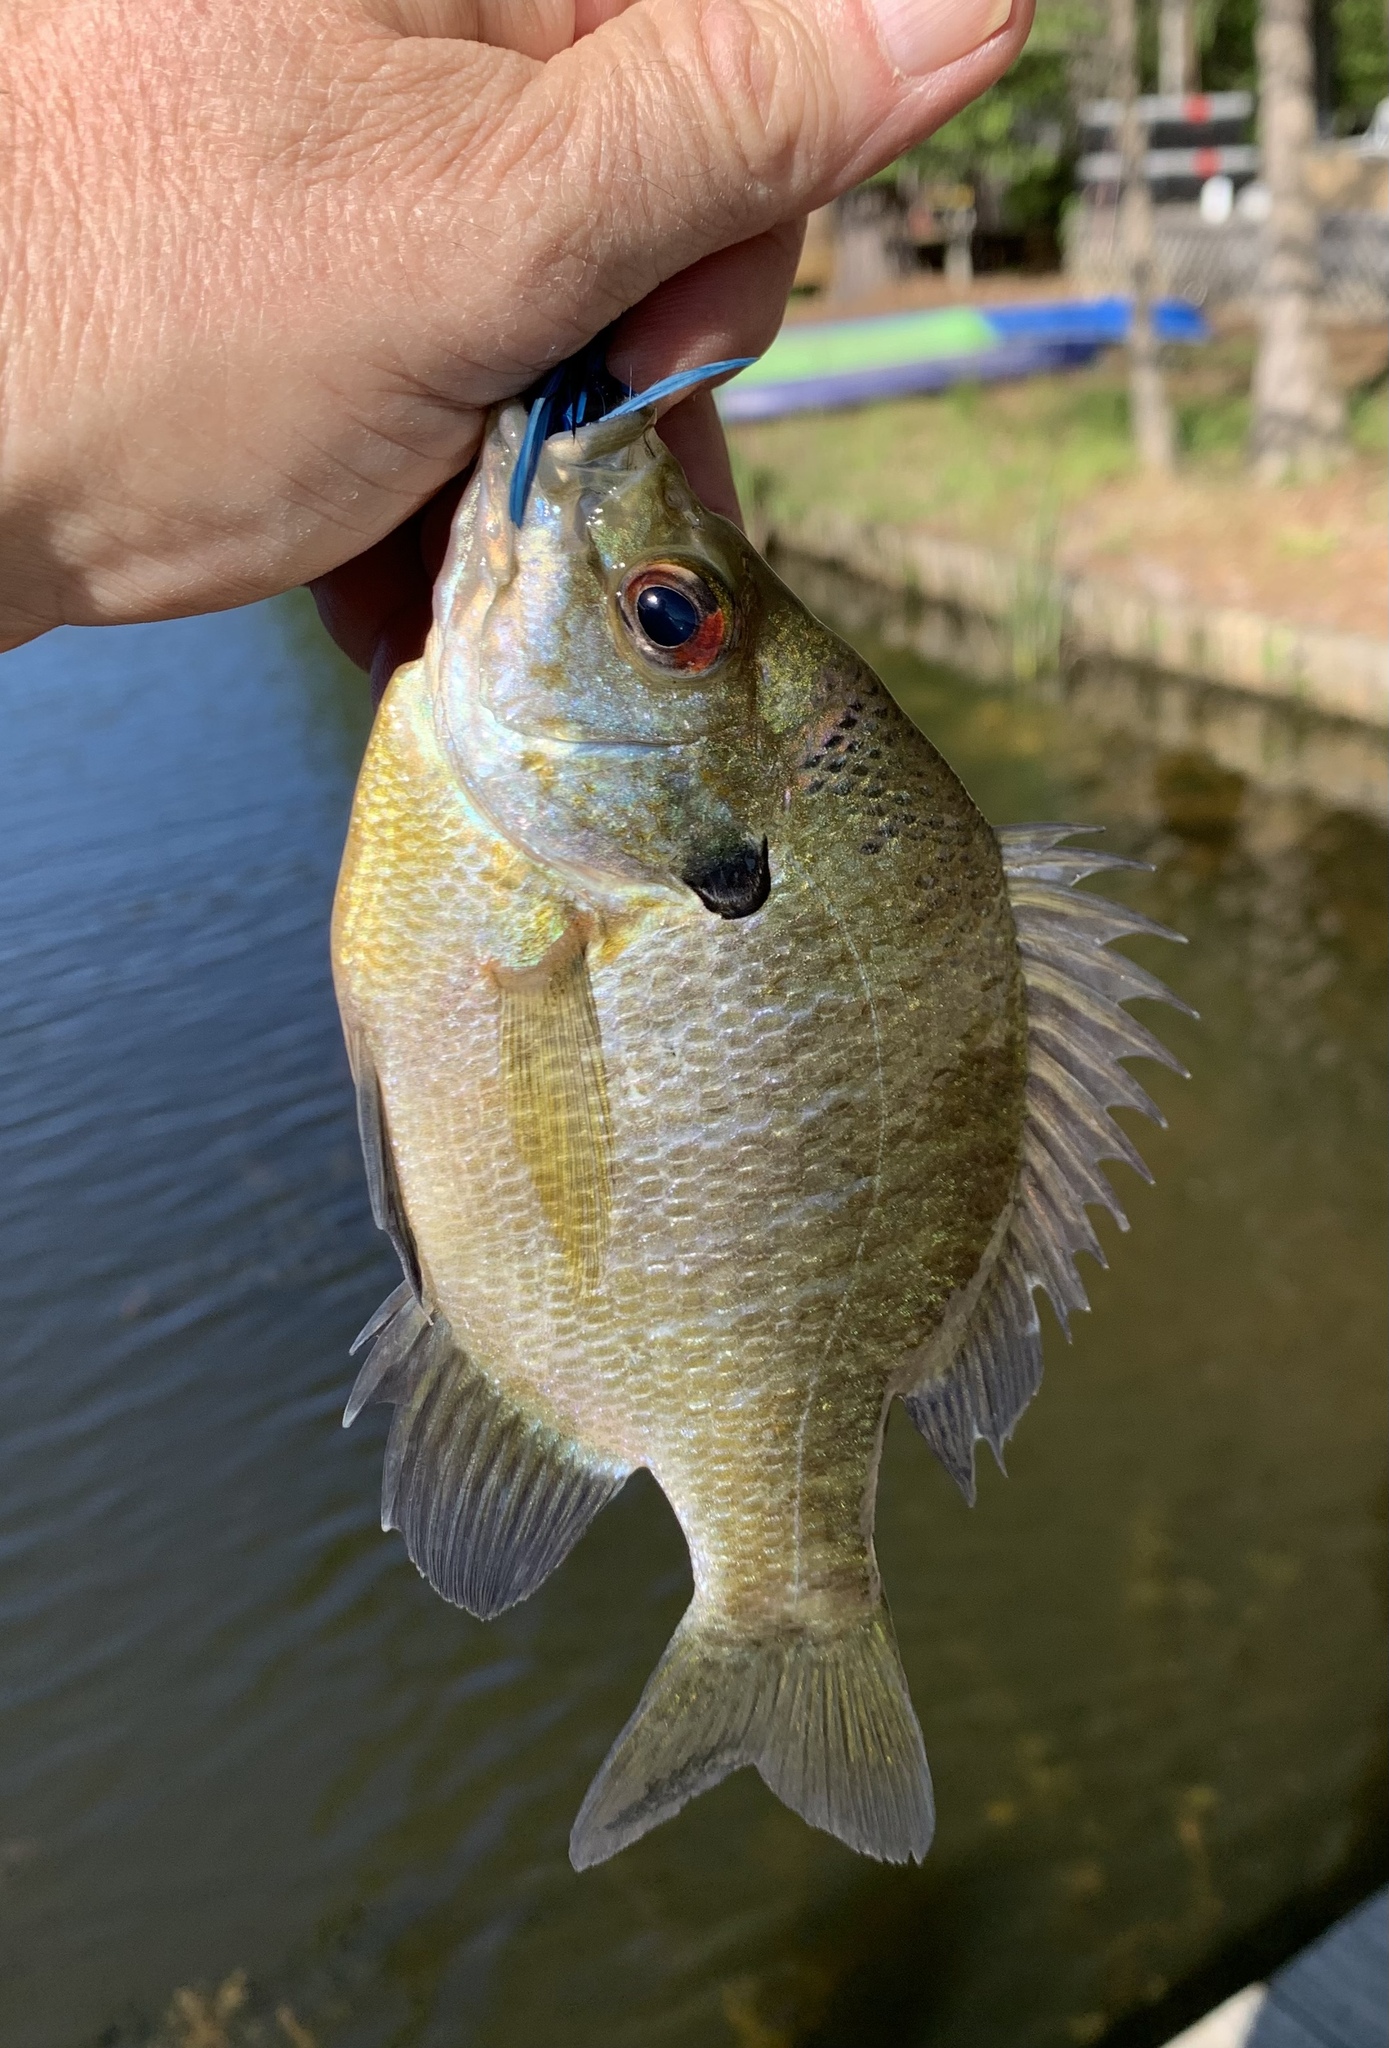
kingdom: Animalia
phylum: Chordata
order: Perciformes
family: Centrarchidae
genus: Lepomis
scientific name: Lepomis macrochirus
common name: Bluegill
